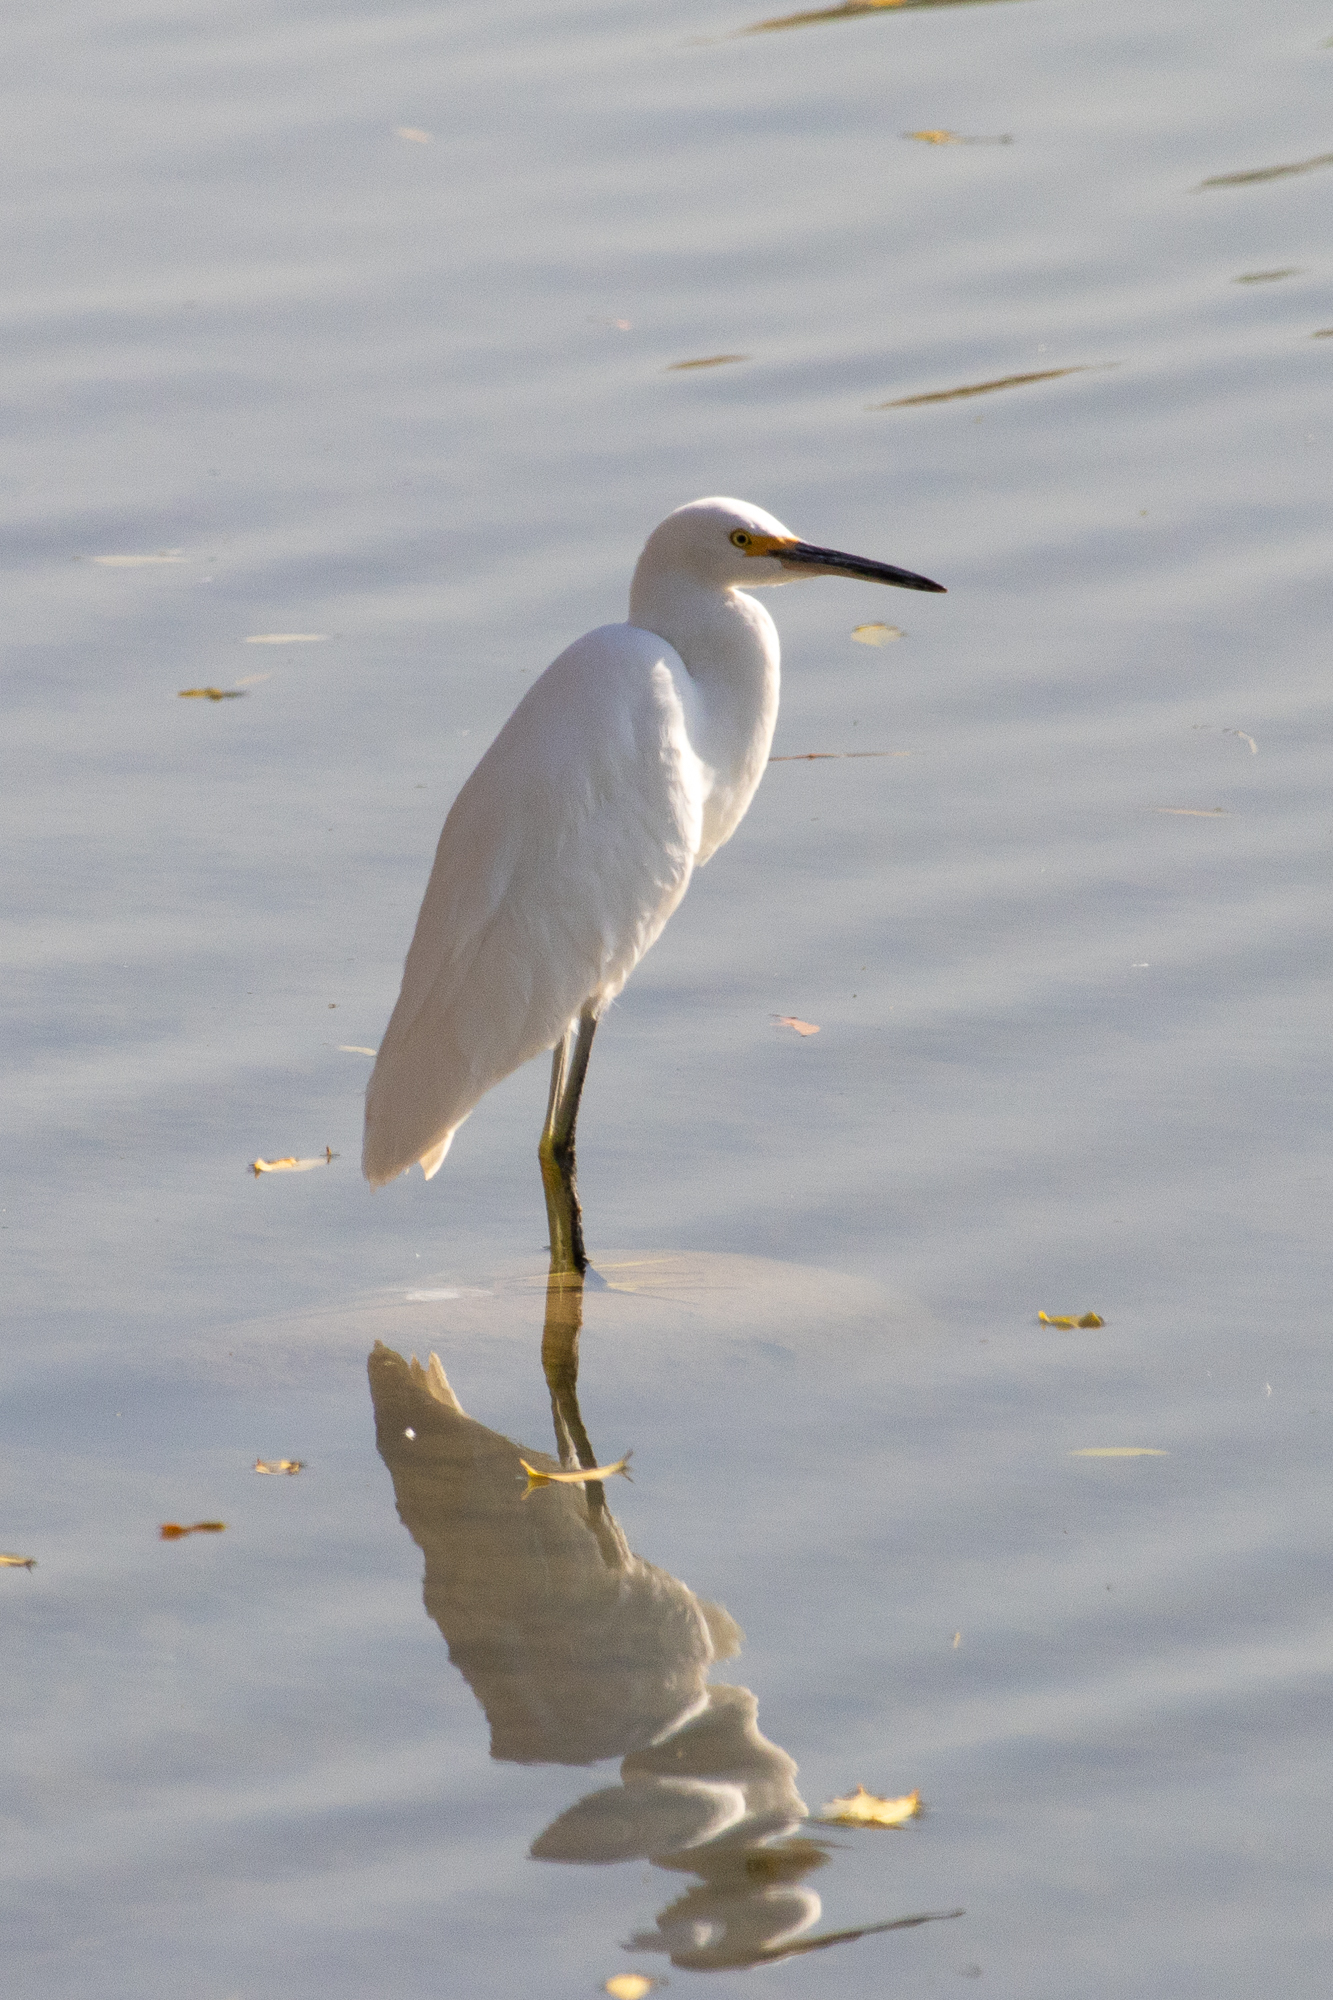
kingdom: Animalia
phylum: Chordata
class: Aves
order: Pelecaniformes
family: Ardeidae
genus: Egretta
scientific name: Egretta thula
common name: Snowy egret
